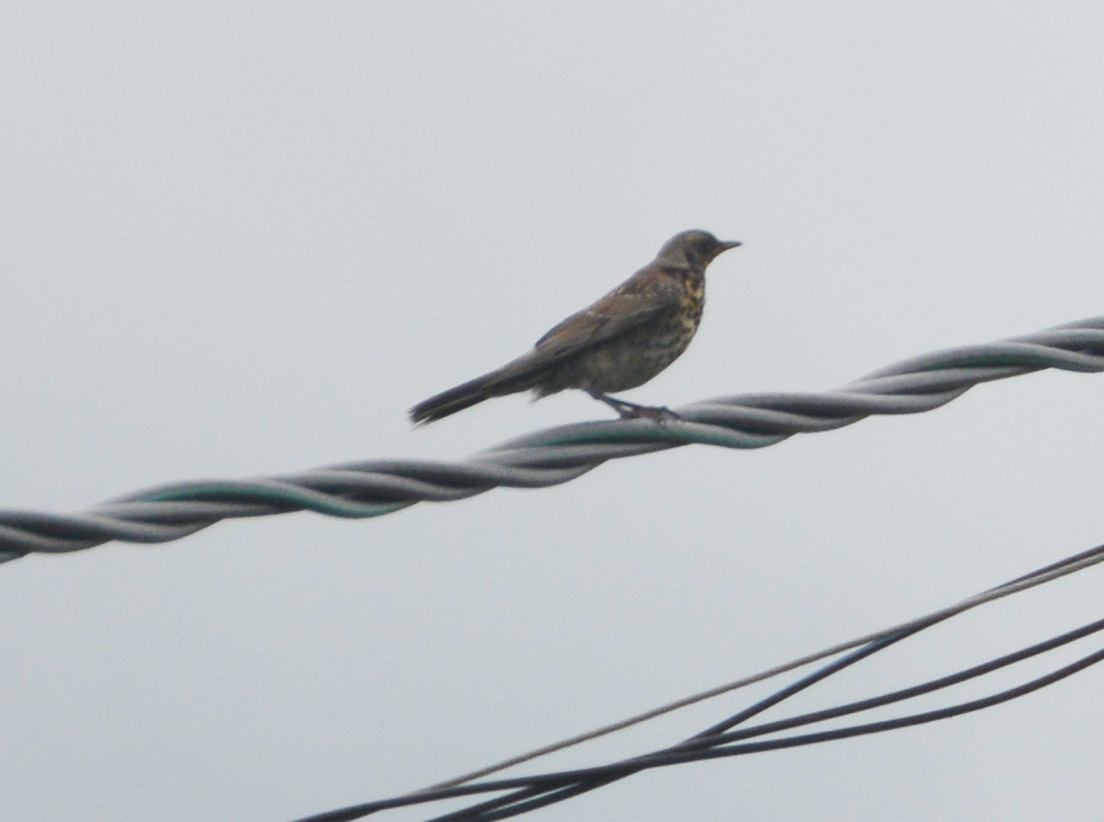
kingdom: Animalia
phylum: Chordata
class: Aves
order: Passeriformes
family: Turdidae
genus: Turdus
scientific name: Turdus pilaris
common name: Fieldfare
